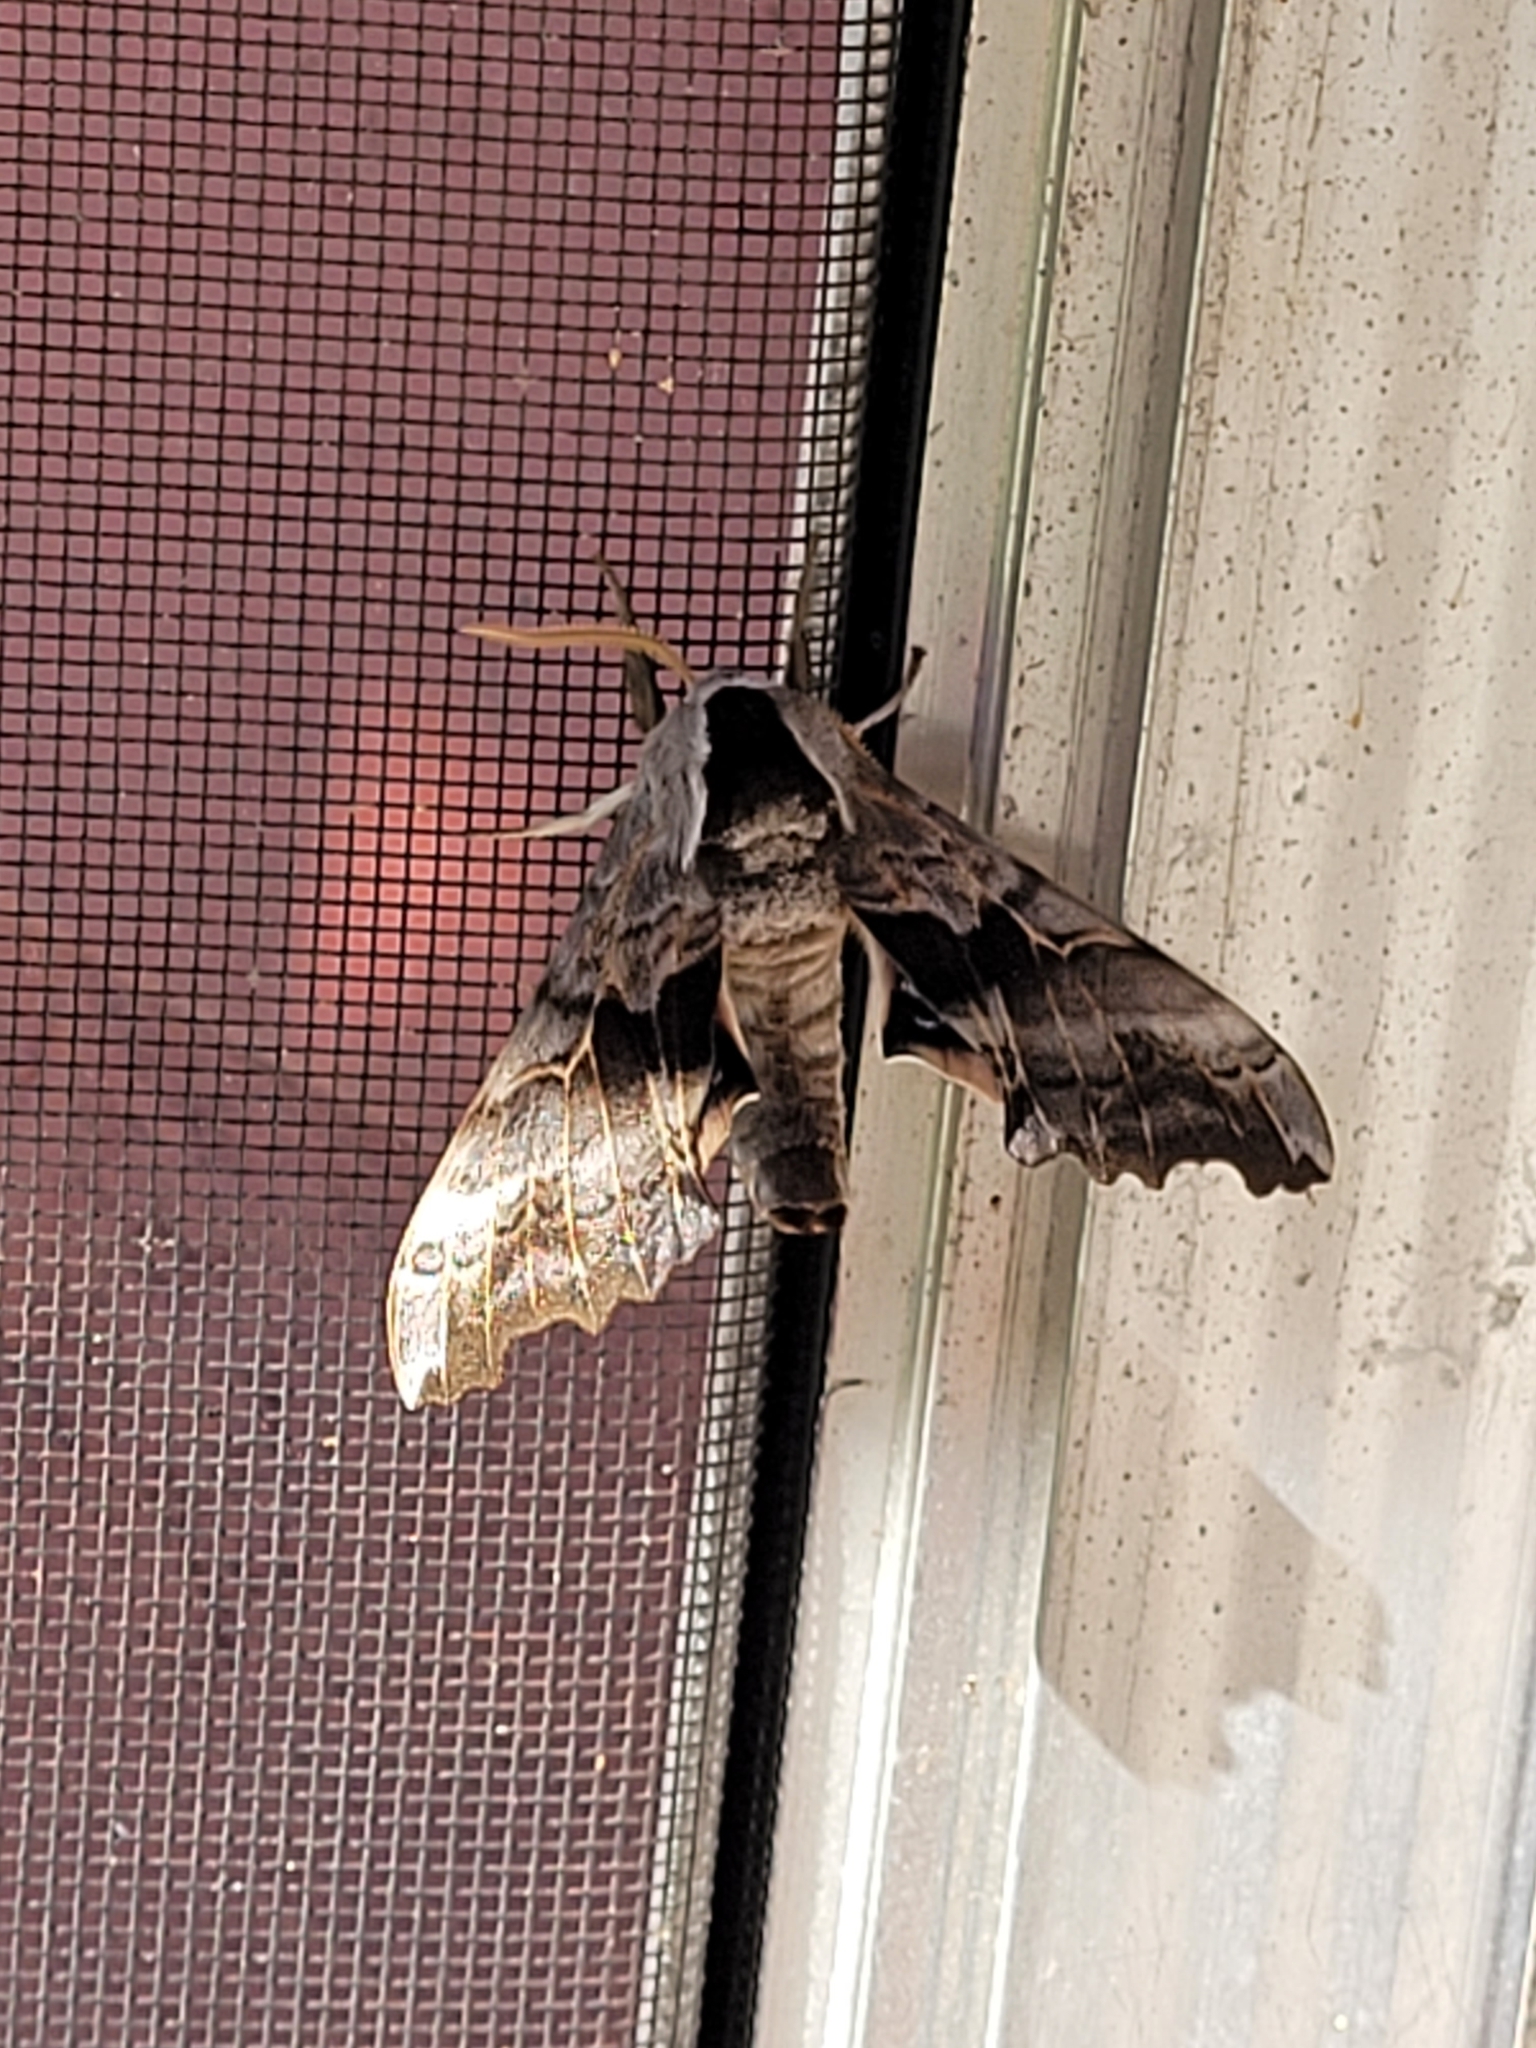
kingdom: Animalia
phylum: Arthropoda
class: Insecta
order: Lepidoptera
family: Sphingidae
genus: Smerinthus
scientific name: Smerinthus cerisyi
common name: Cerisy's sphinx moth
